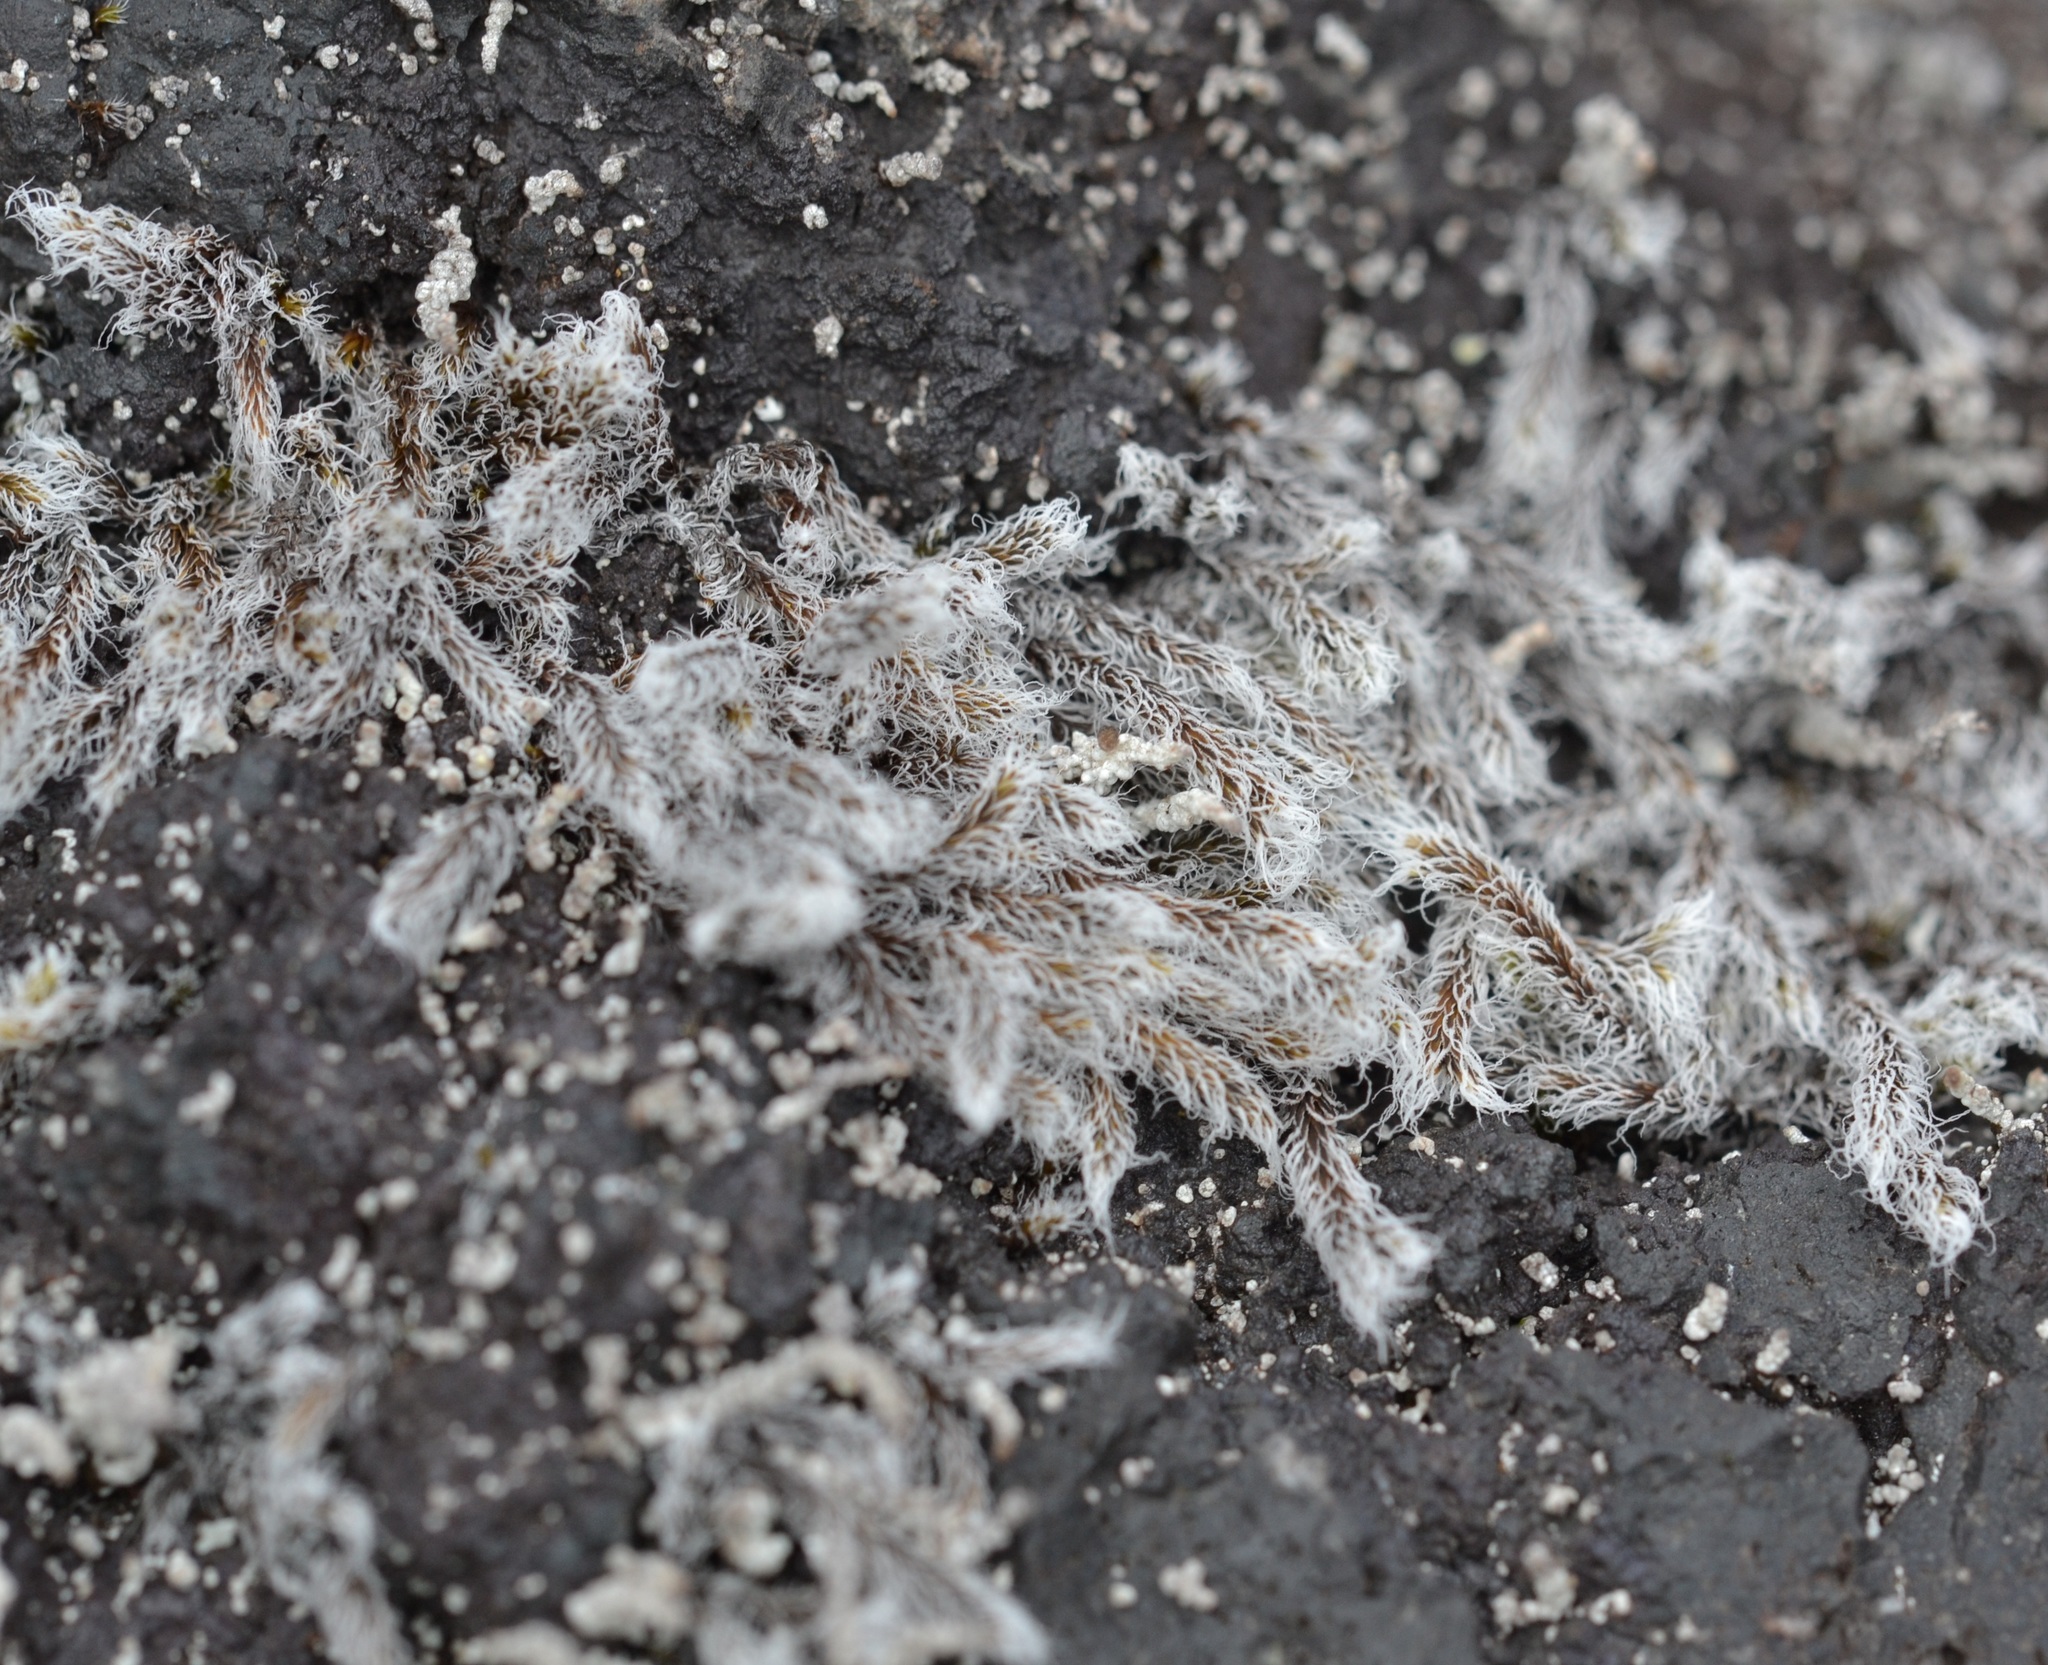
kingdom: Plantae
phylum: Bryophyta
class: Bryopsida
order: Grimmiales
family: Grimmiaceae
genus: Racomitrium
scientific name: Racomitrium lanuginosum
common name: Hoary rock moss
